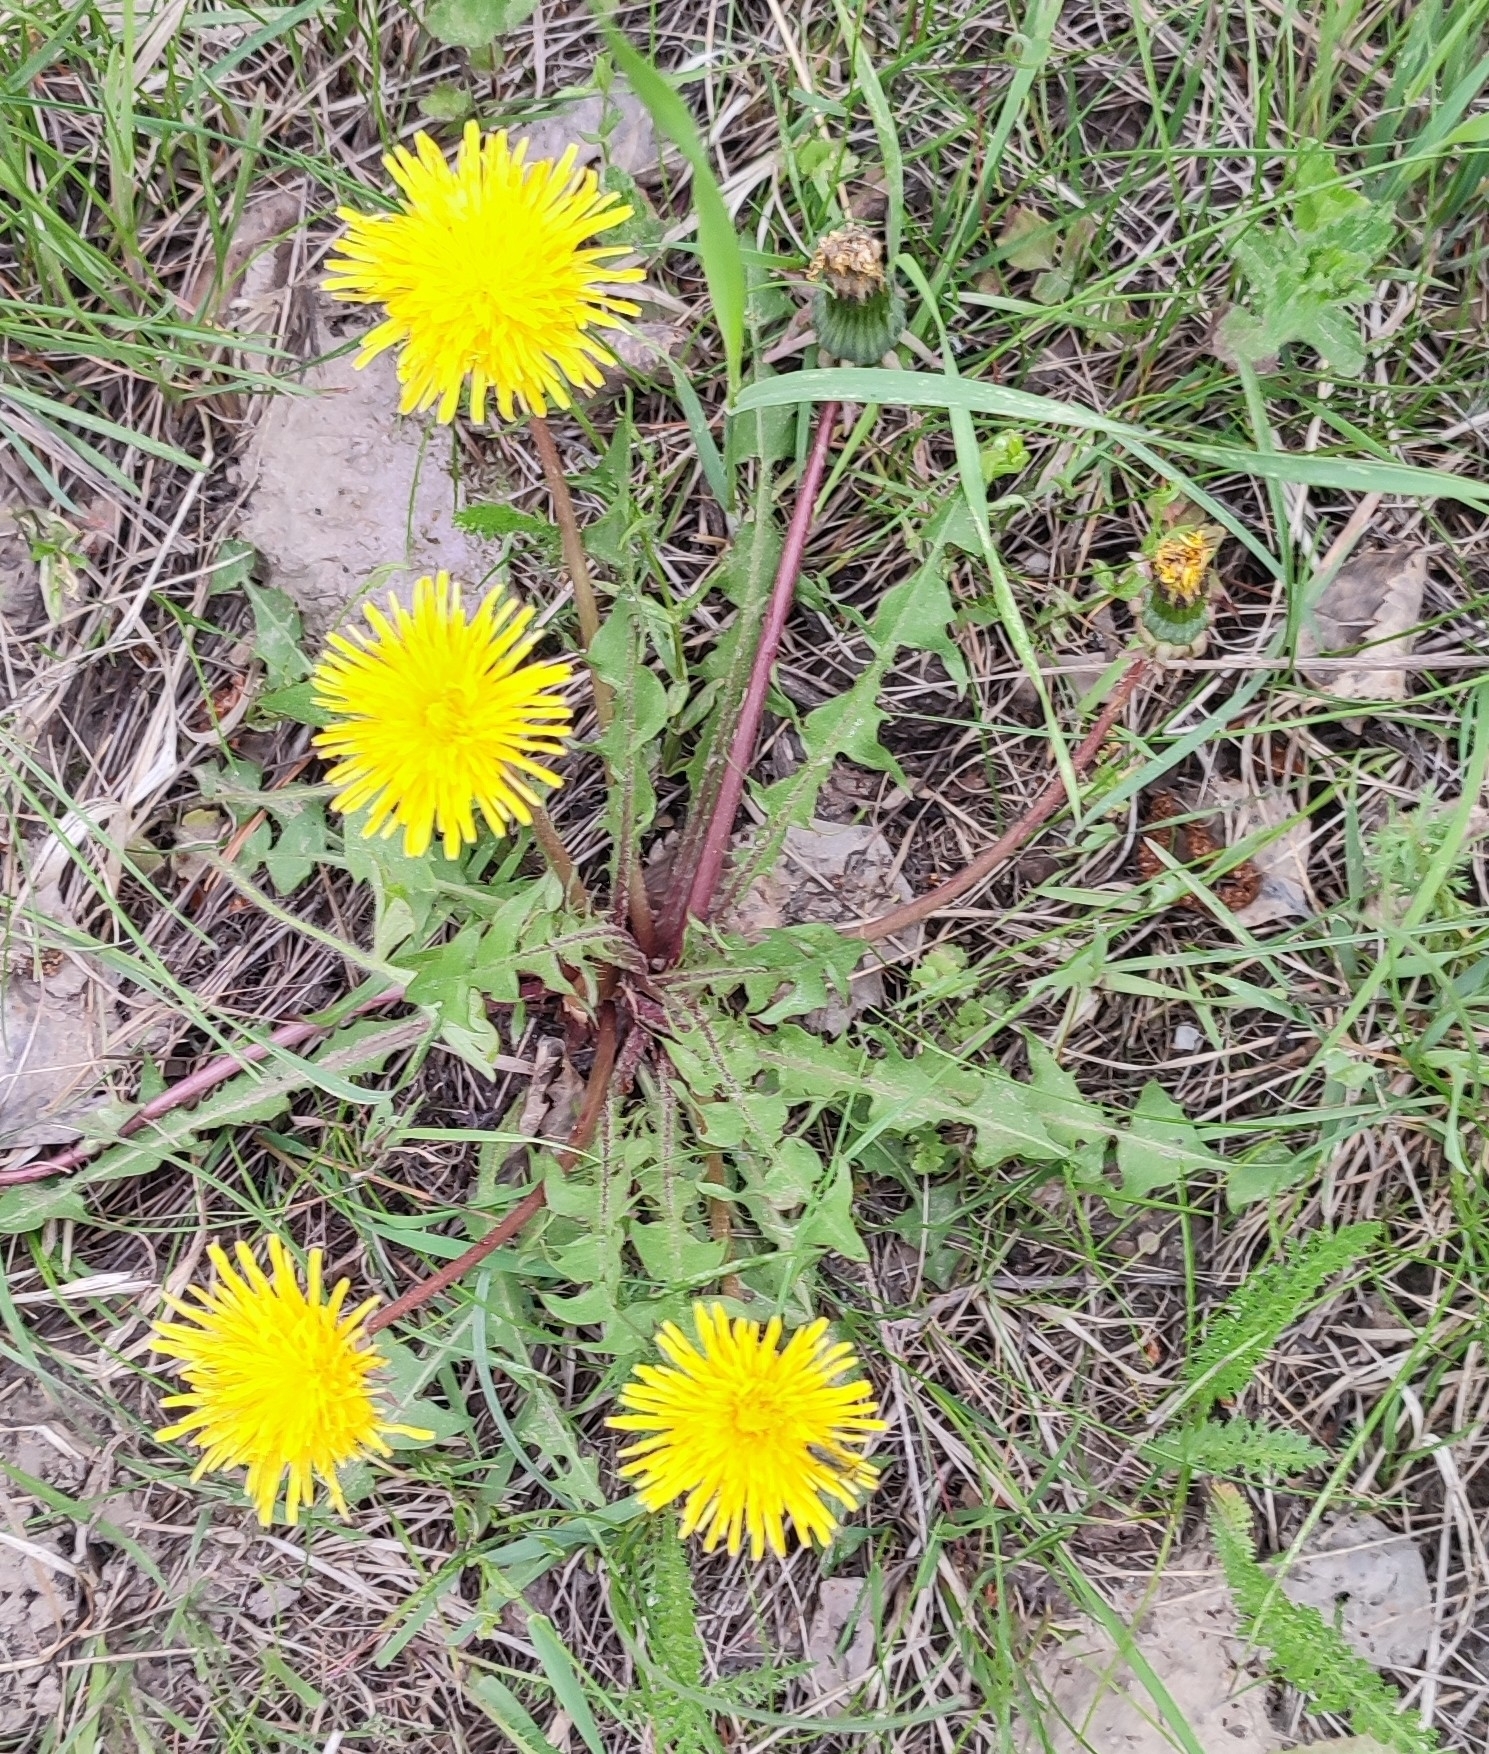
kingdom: Plantae
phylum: Tracheophyta
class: Magnoliopsida
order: Asterales
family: Asteraceae
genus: Taraxacum
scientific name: Taraxacum officinale
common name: Common dandelion
